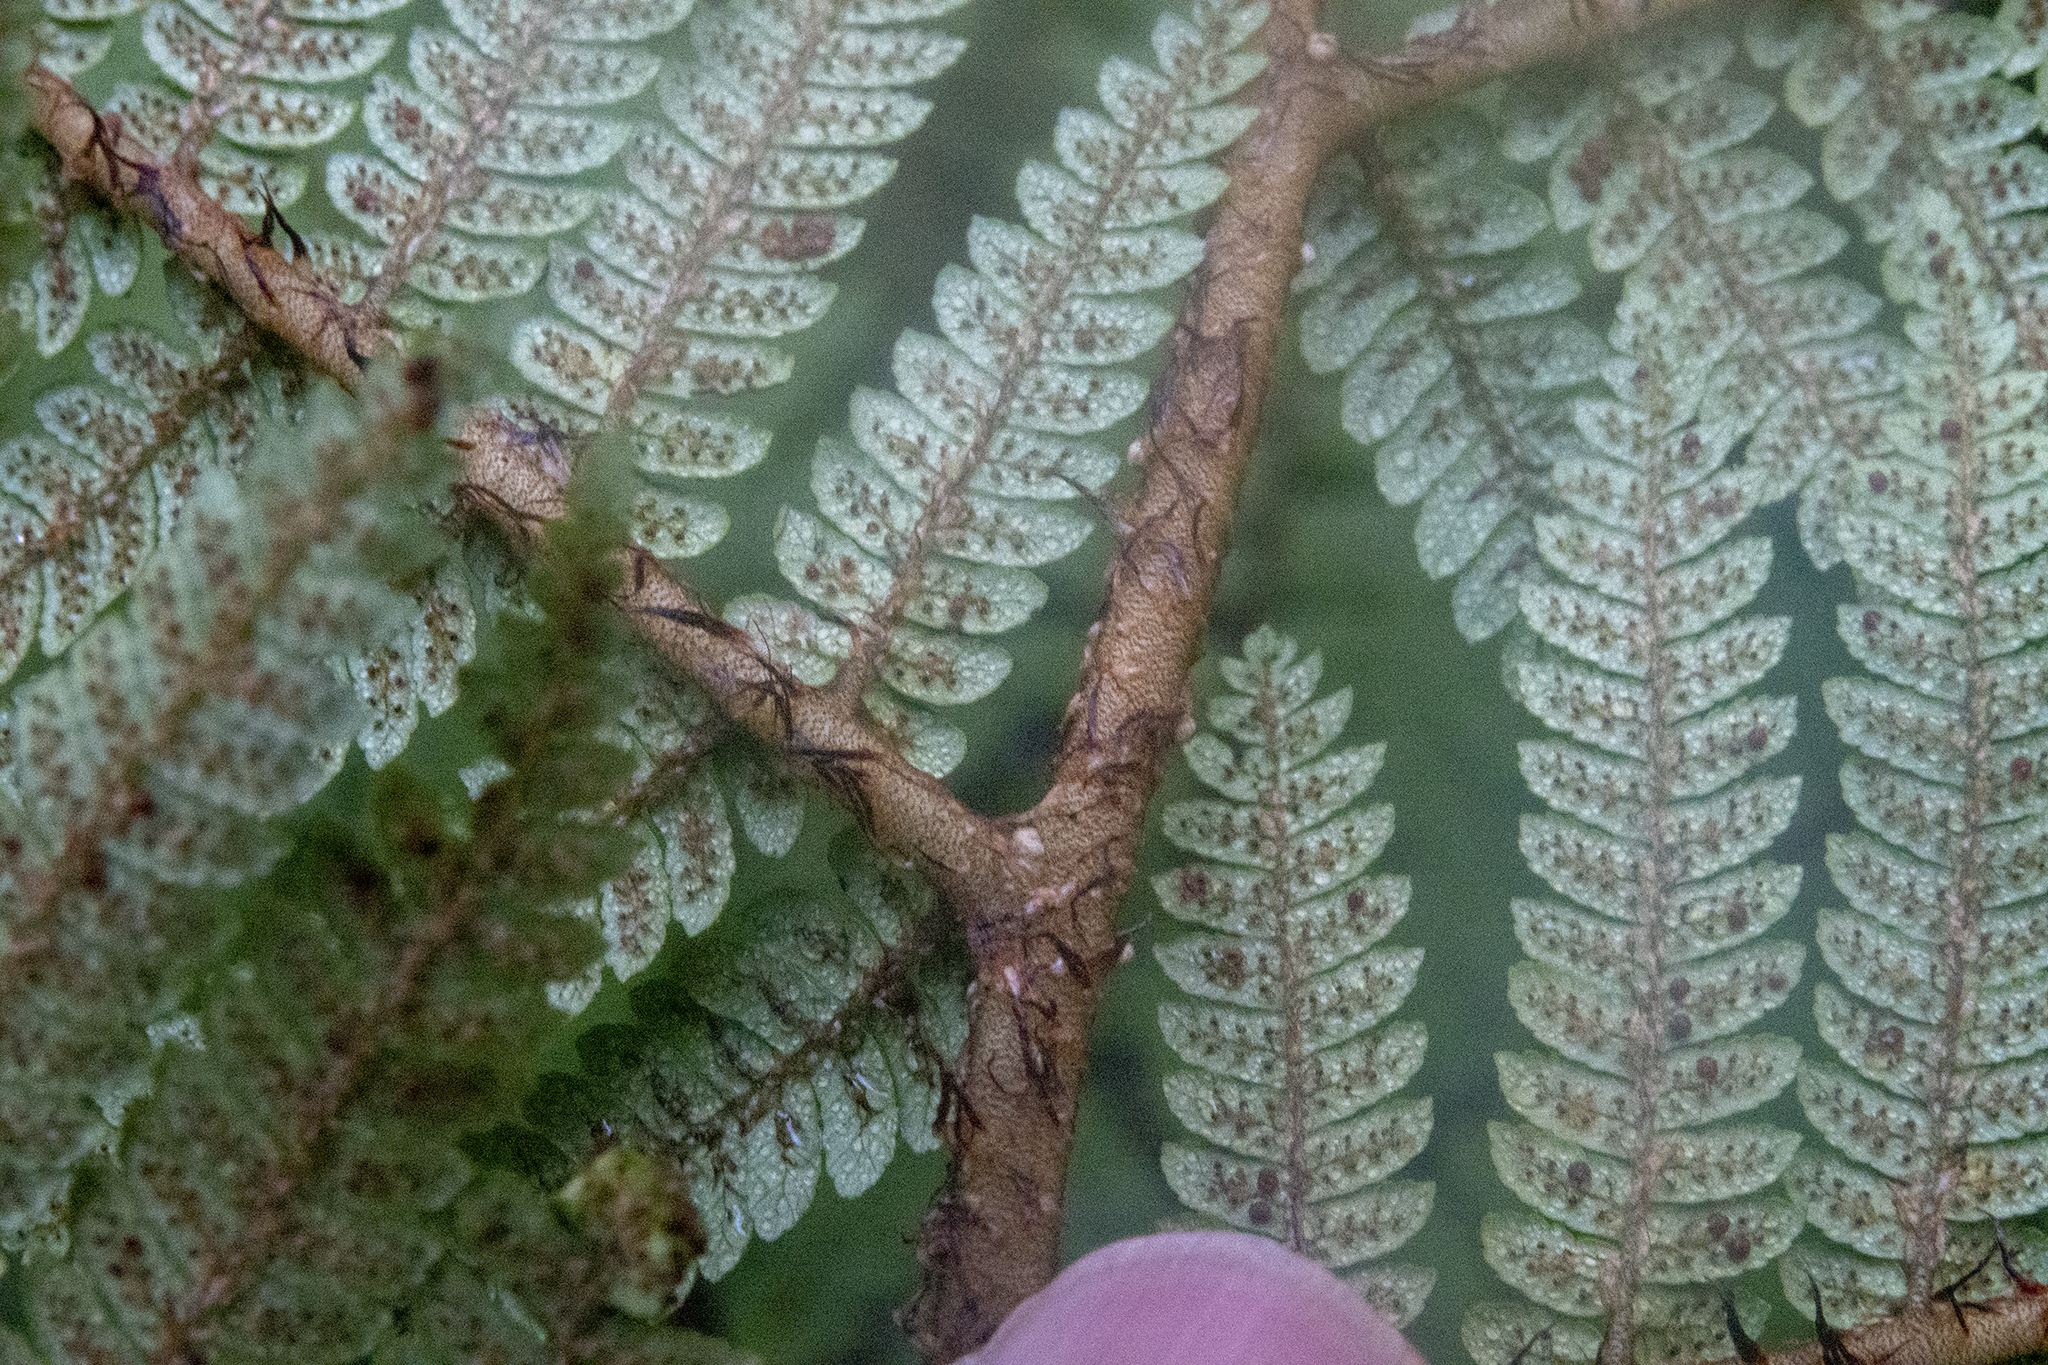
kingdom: Plantae
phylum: Tracheophyta
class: Polypodiopsida
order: Cyatheales
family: Cyatheaceae
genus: Alsophila
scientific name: Alsophila colensoi
